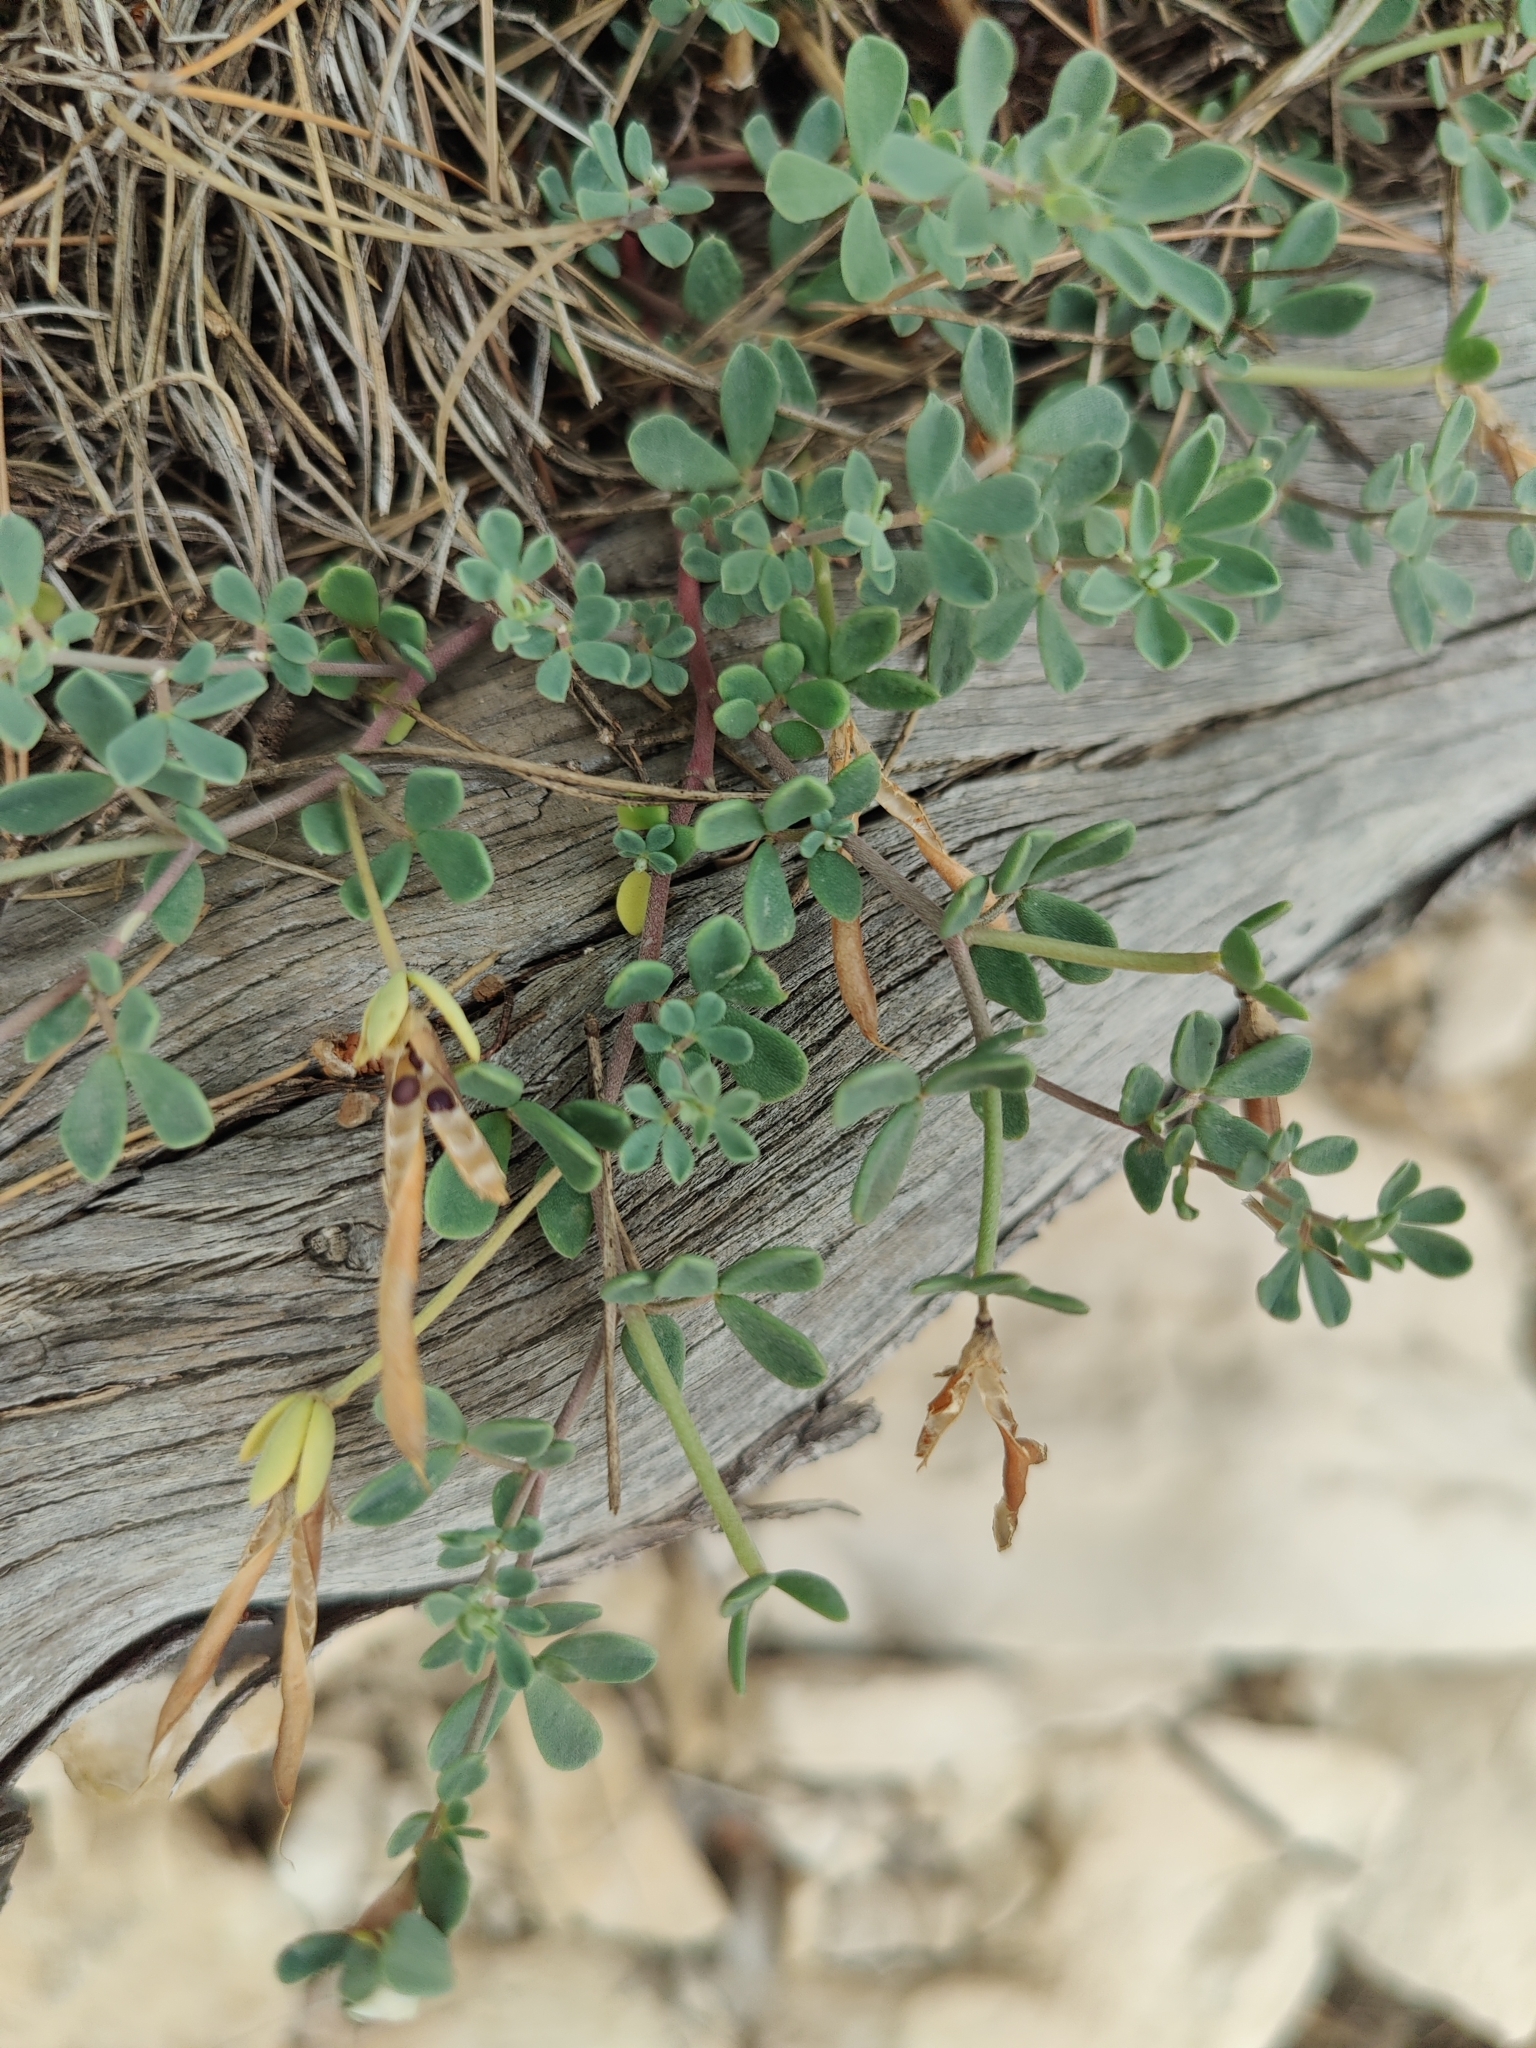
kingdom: Plantae
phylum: Tracheophyta
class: Magnoliopsida
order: Fabales
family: Fabaceae
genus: Lotus
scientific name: Lotus cytisoides
